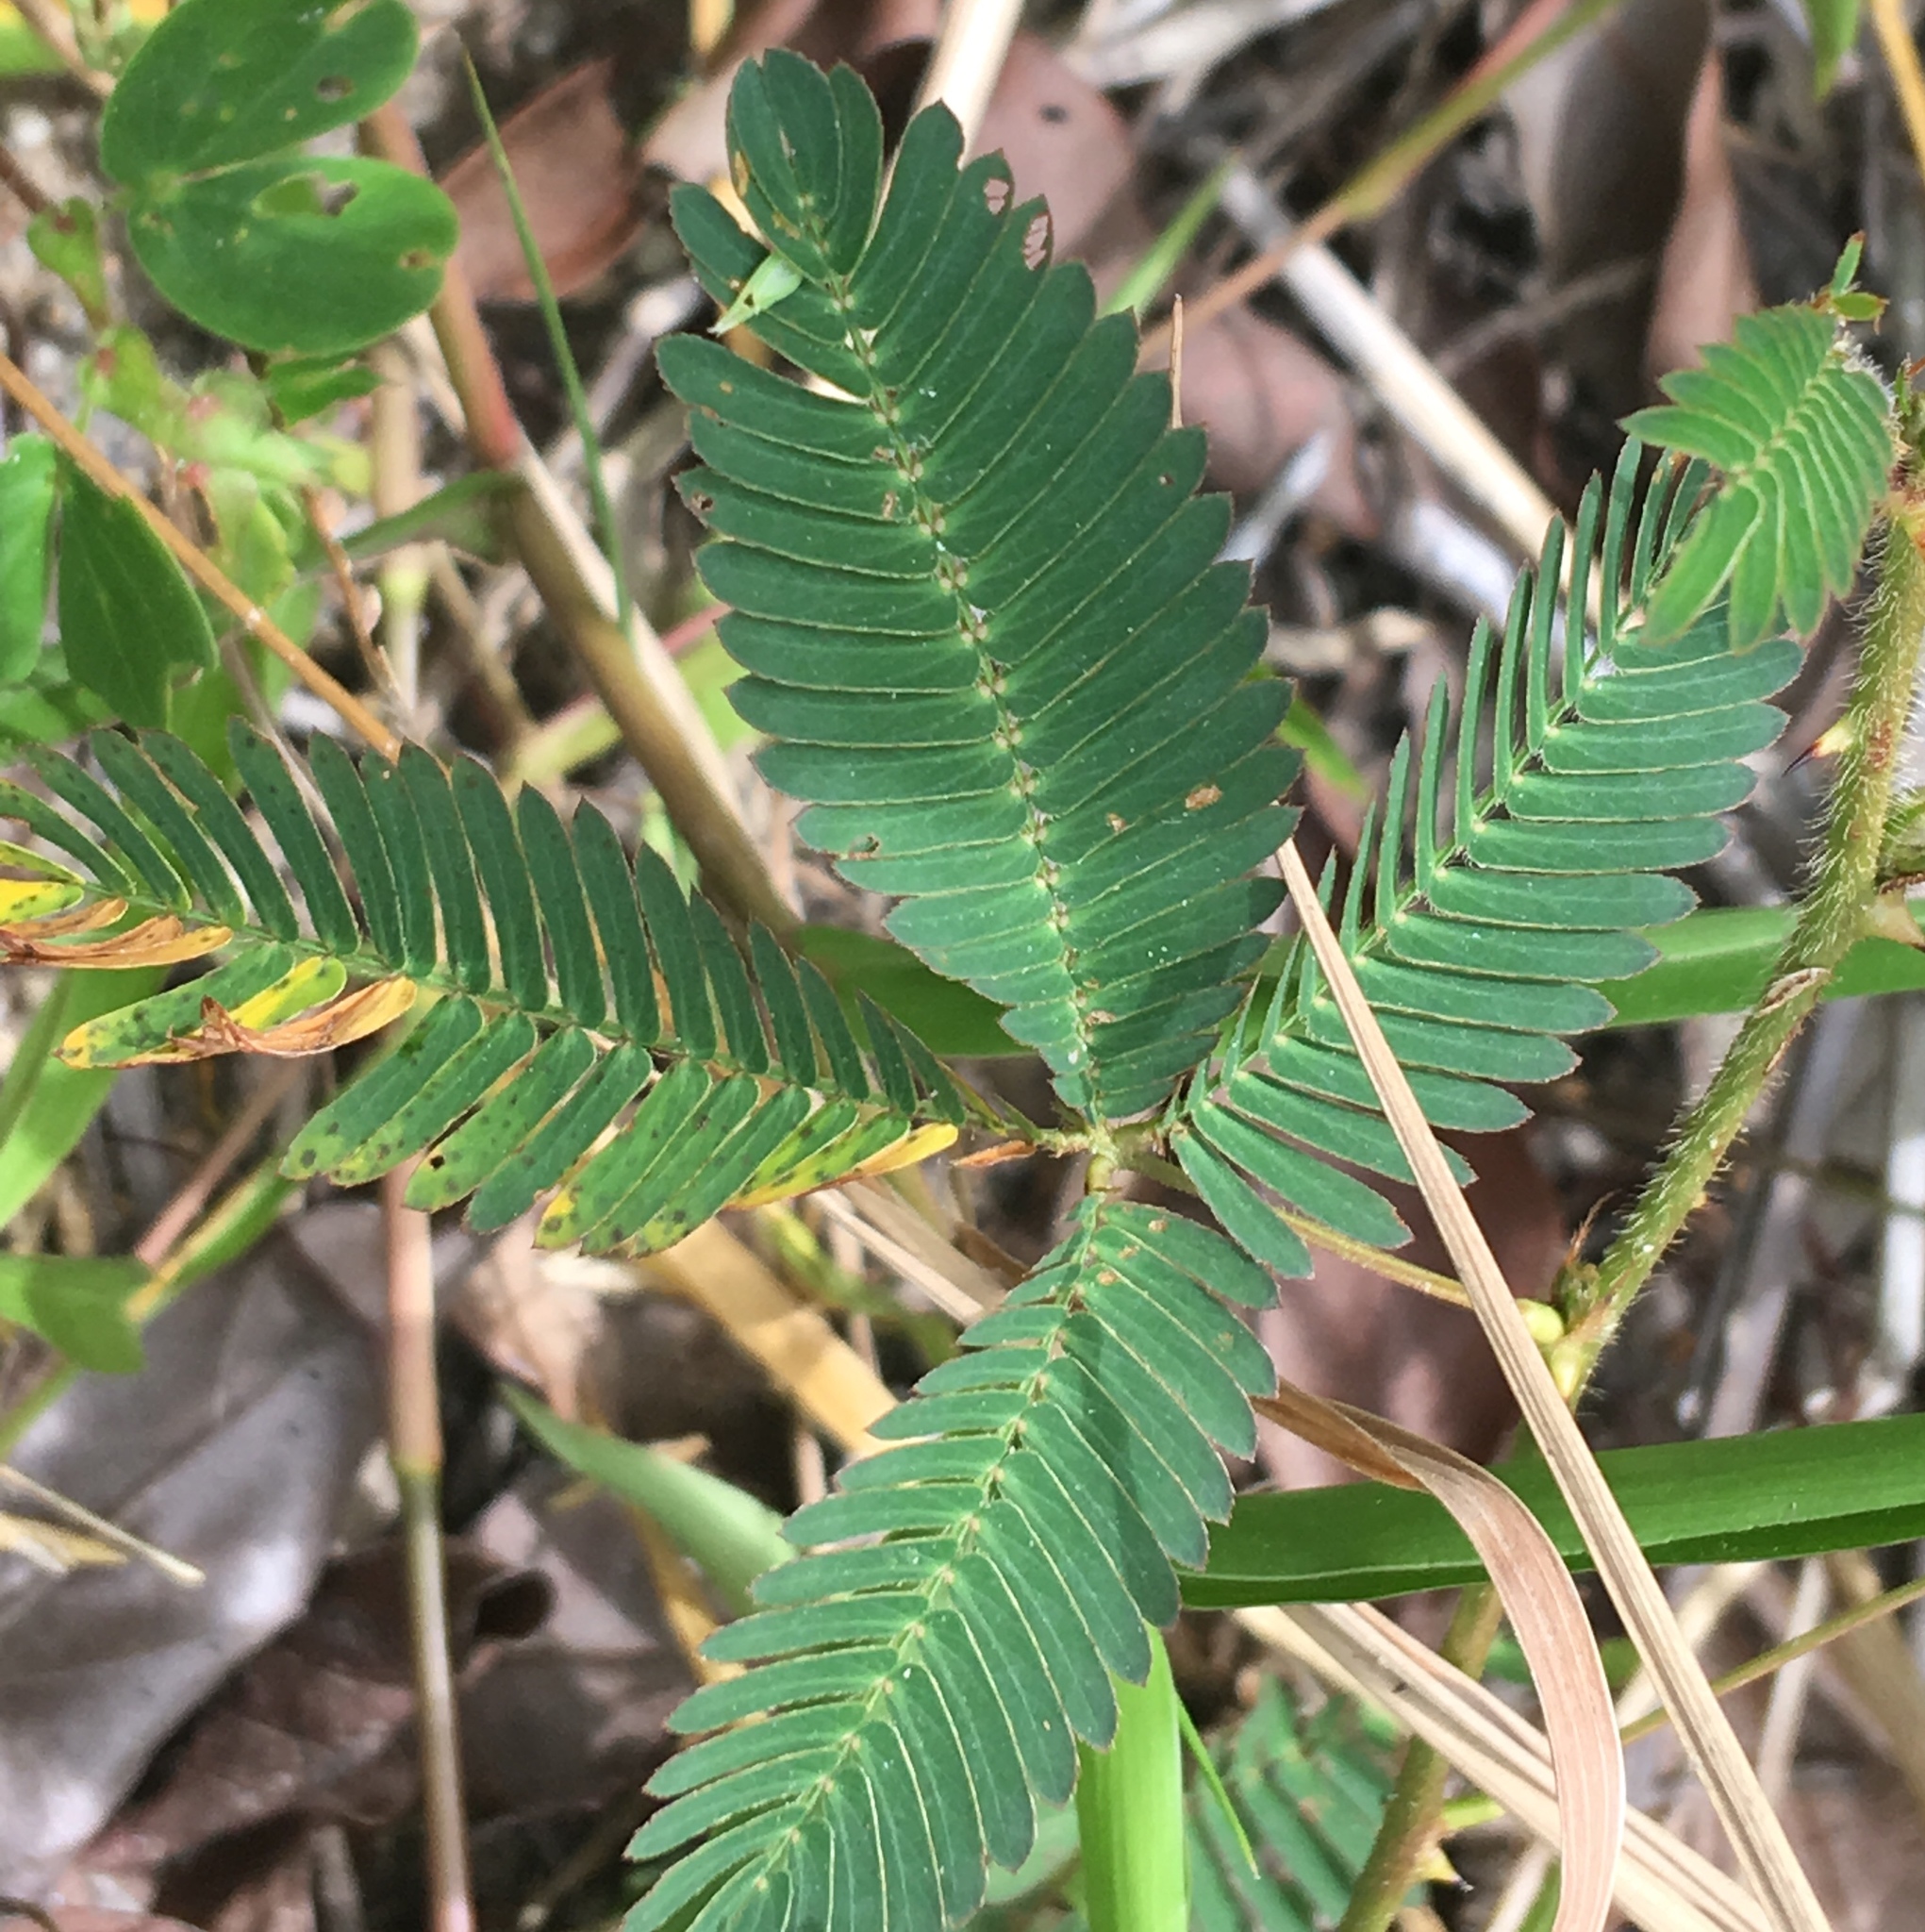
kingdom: Plantae
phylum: Tracheophyta
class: Magnoliopsida
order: Fabales
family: Fabaceae
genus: Mimosa
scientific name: Mimosa pudica
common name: Sensitive plant
